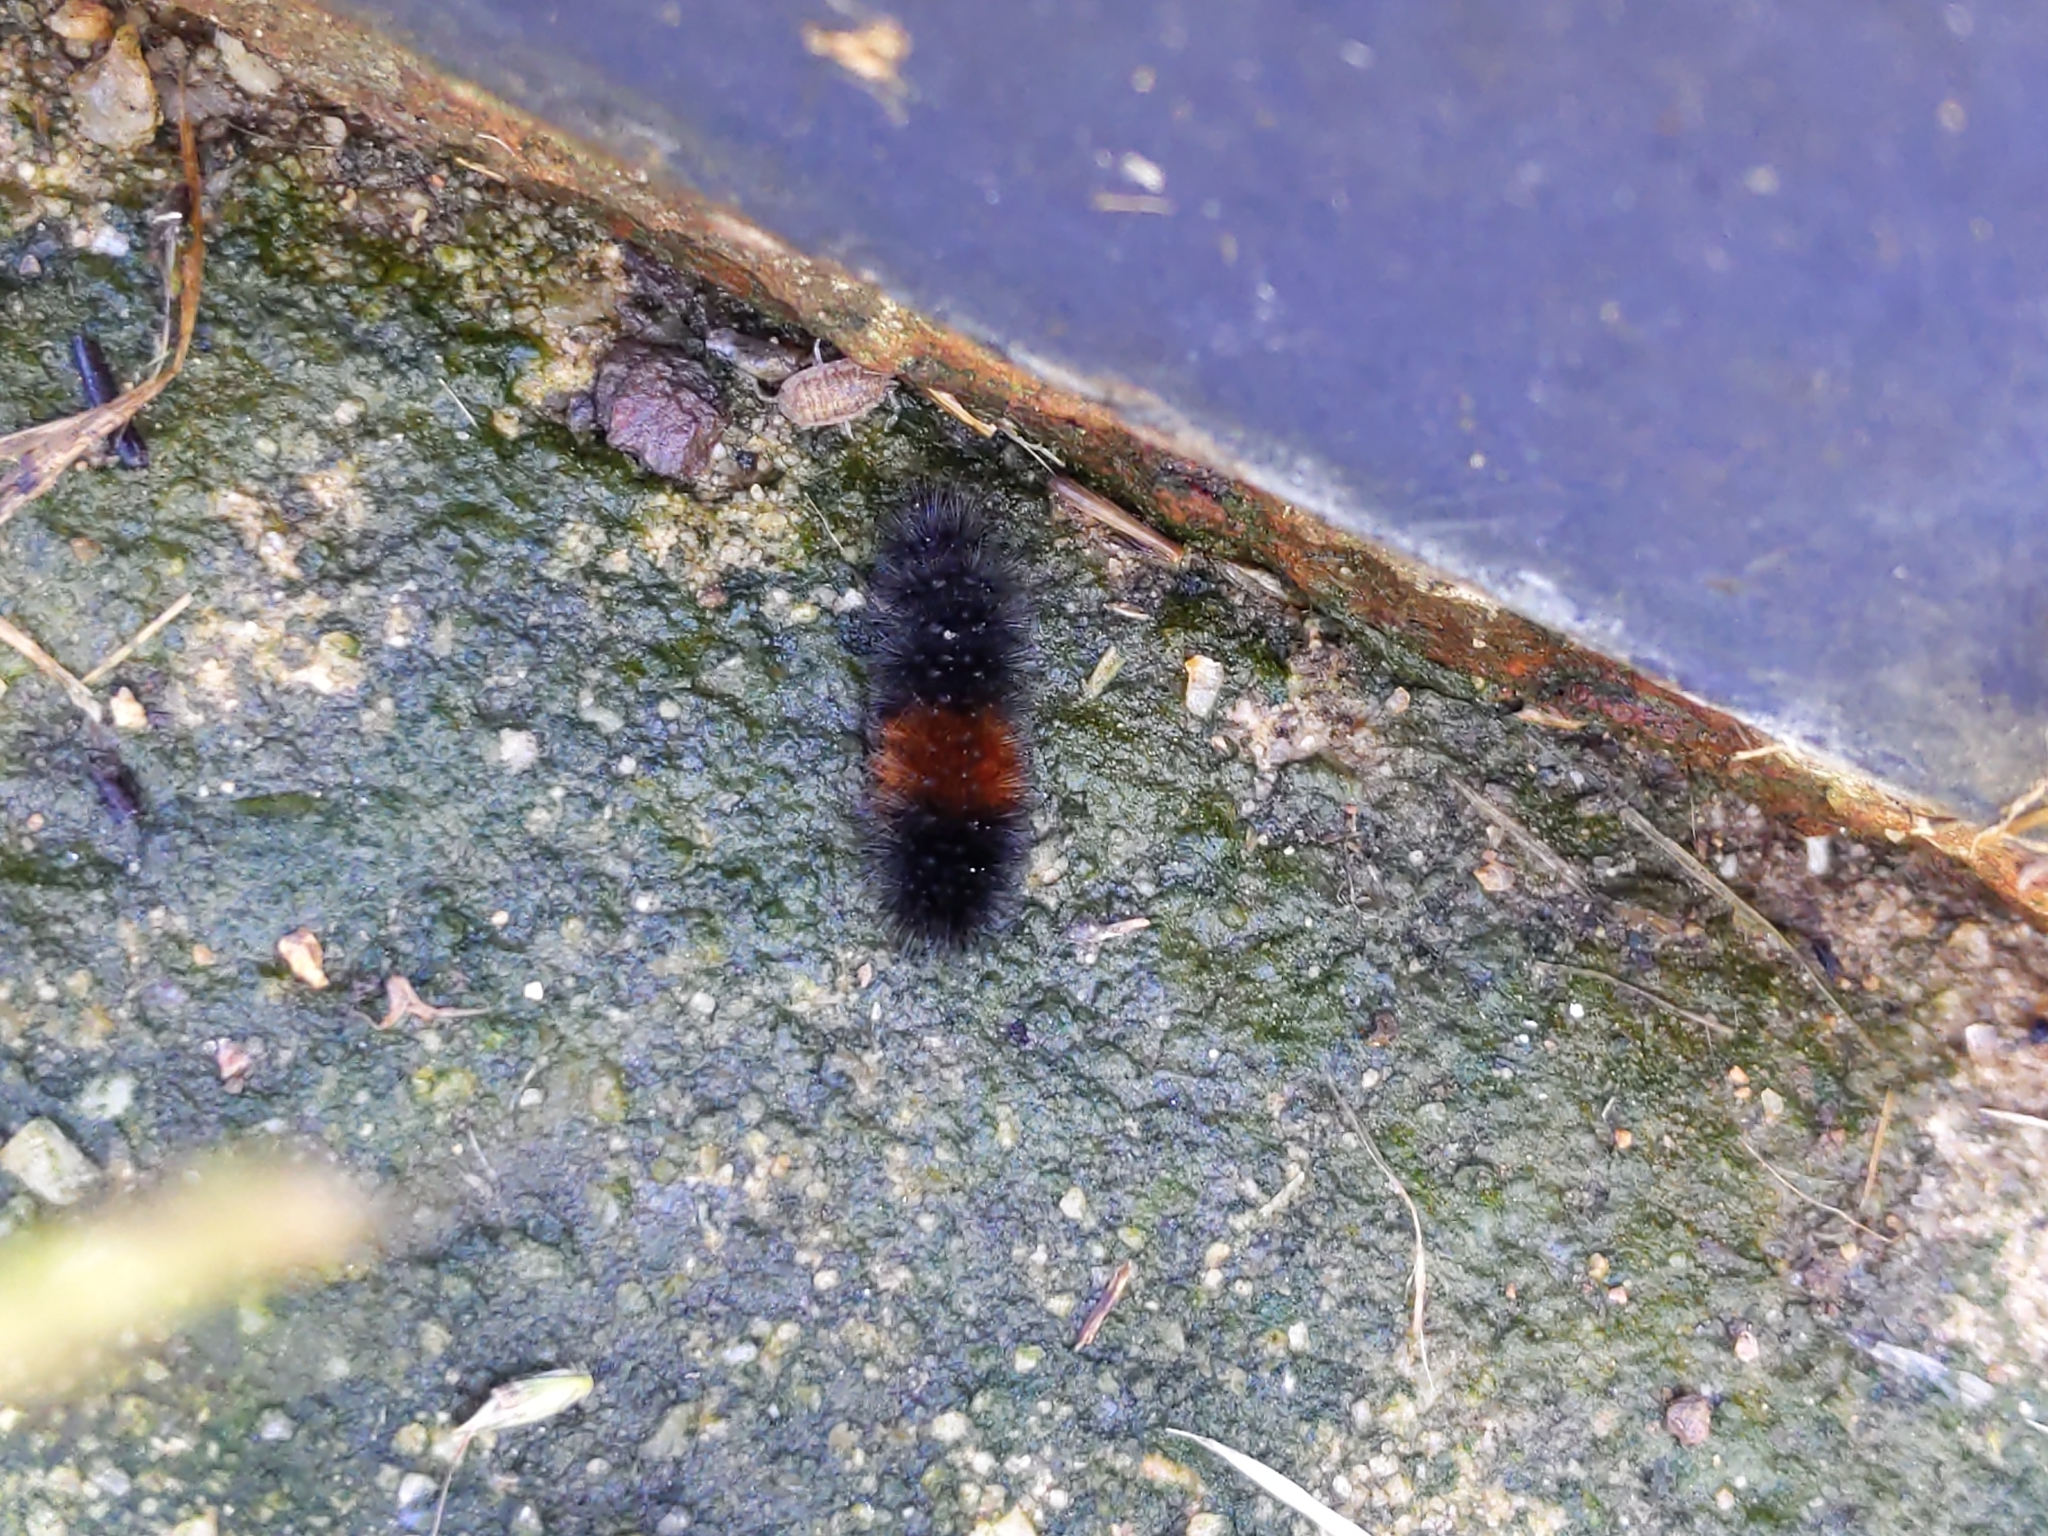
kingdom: Animalia
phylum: Arthropoda
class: Insecta
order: Lepidoptera
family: Erebidae
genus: Pyrrharctia
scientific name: Pyrrharctia isabella
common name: Isabella tiger moth
